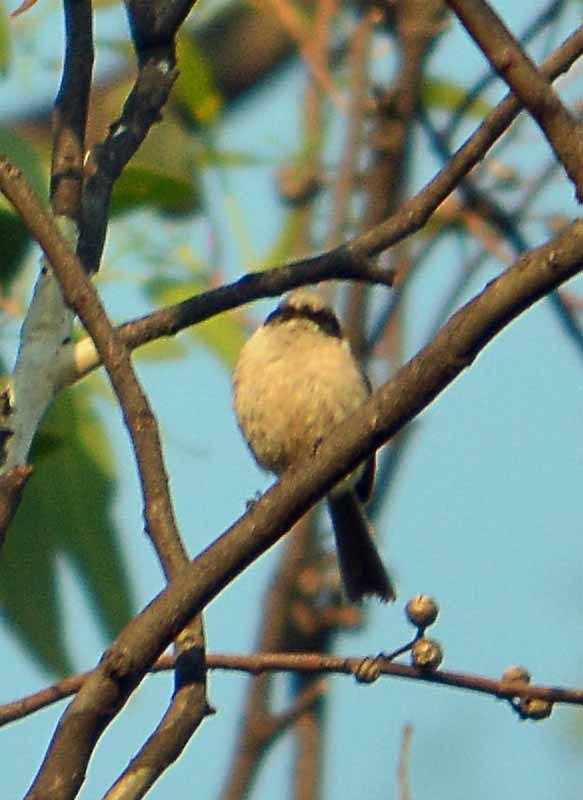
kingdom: Animalia
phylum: Chordata
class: Aves
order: Passeriformes
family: Aegithalidae
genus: Psaltriparus
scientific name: Psaltriparus minimus
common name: American bushtit
